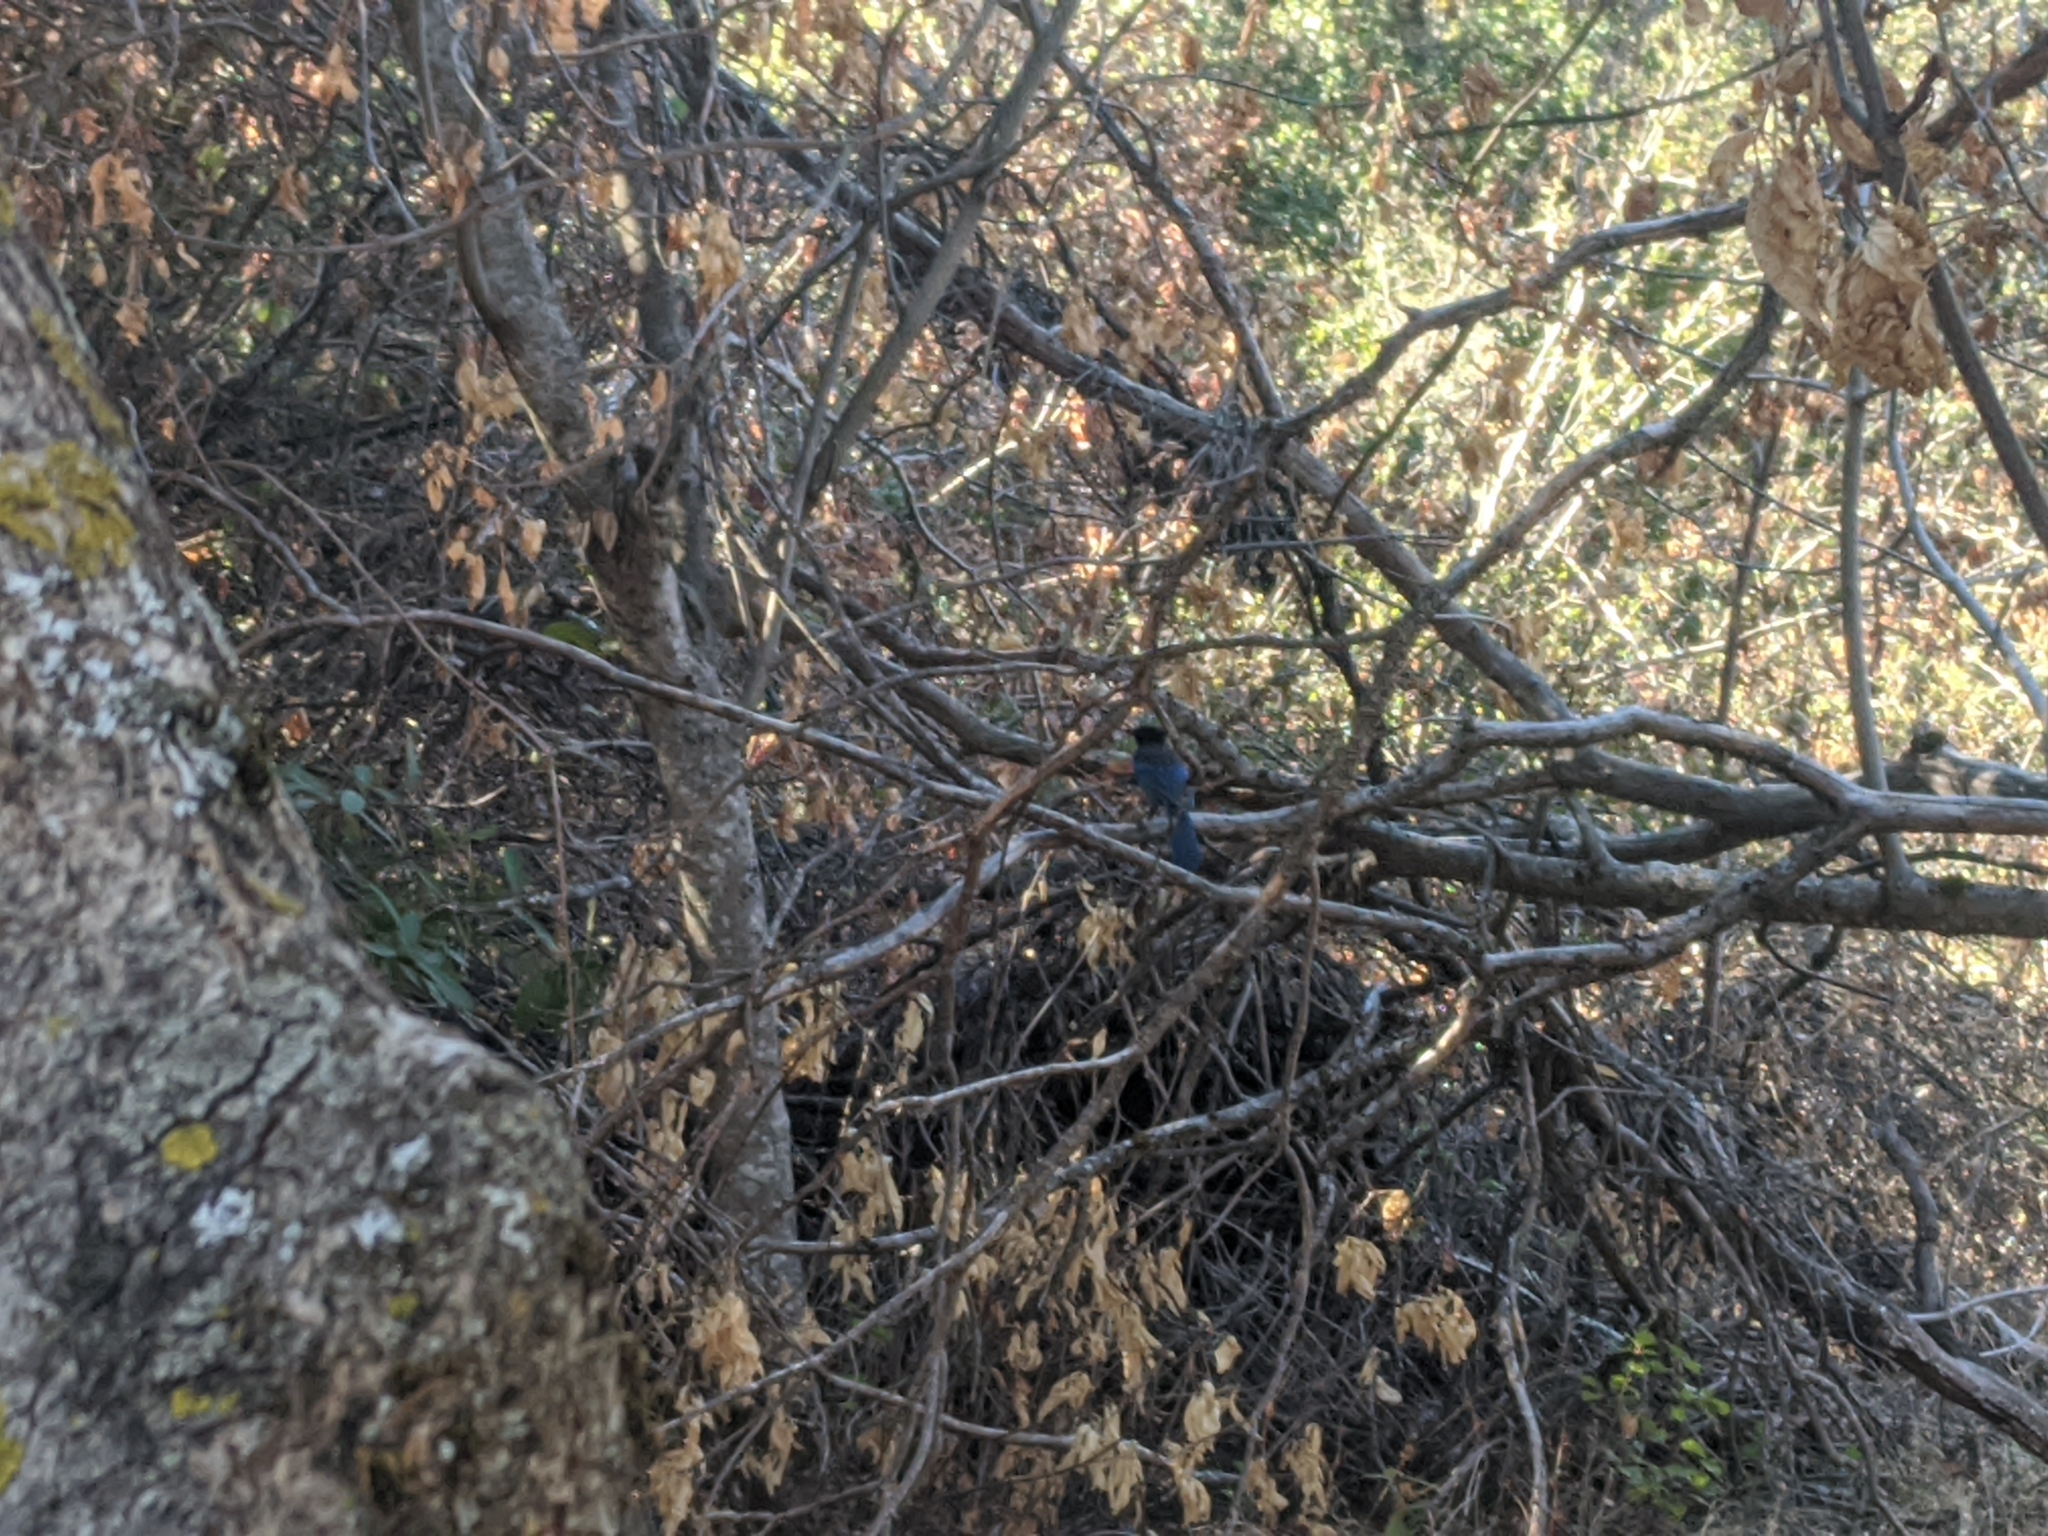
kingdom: Animalia
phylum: Chordata
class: Aves
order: Passeriformes
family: Corvidae
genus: Cyanocitta
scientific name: Cyanocitta stelleri
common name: Steller's jay
